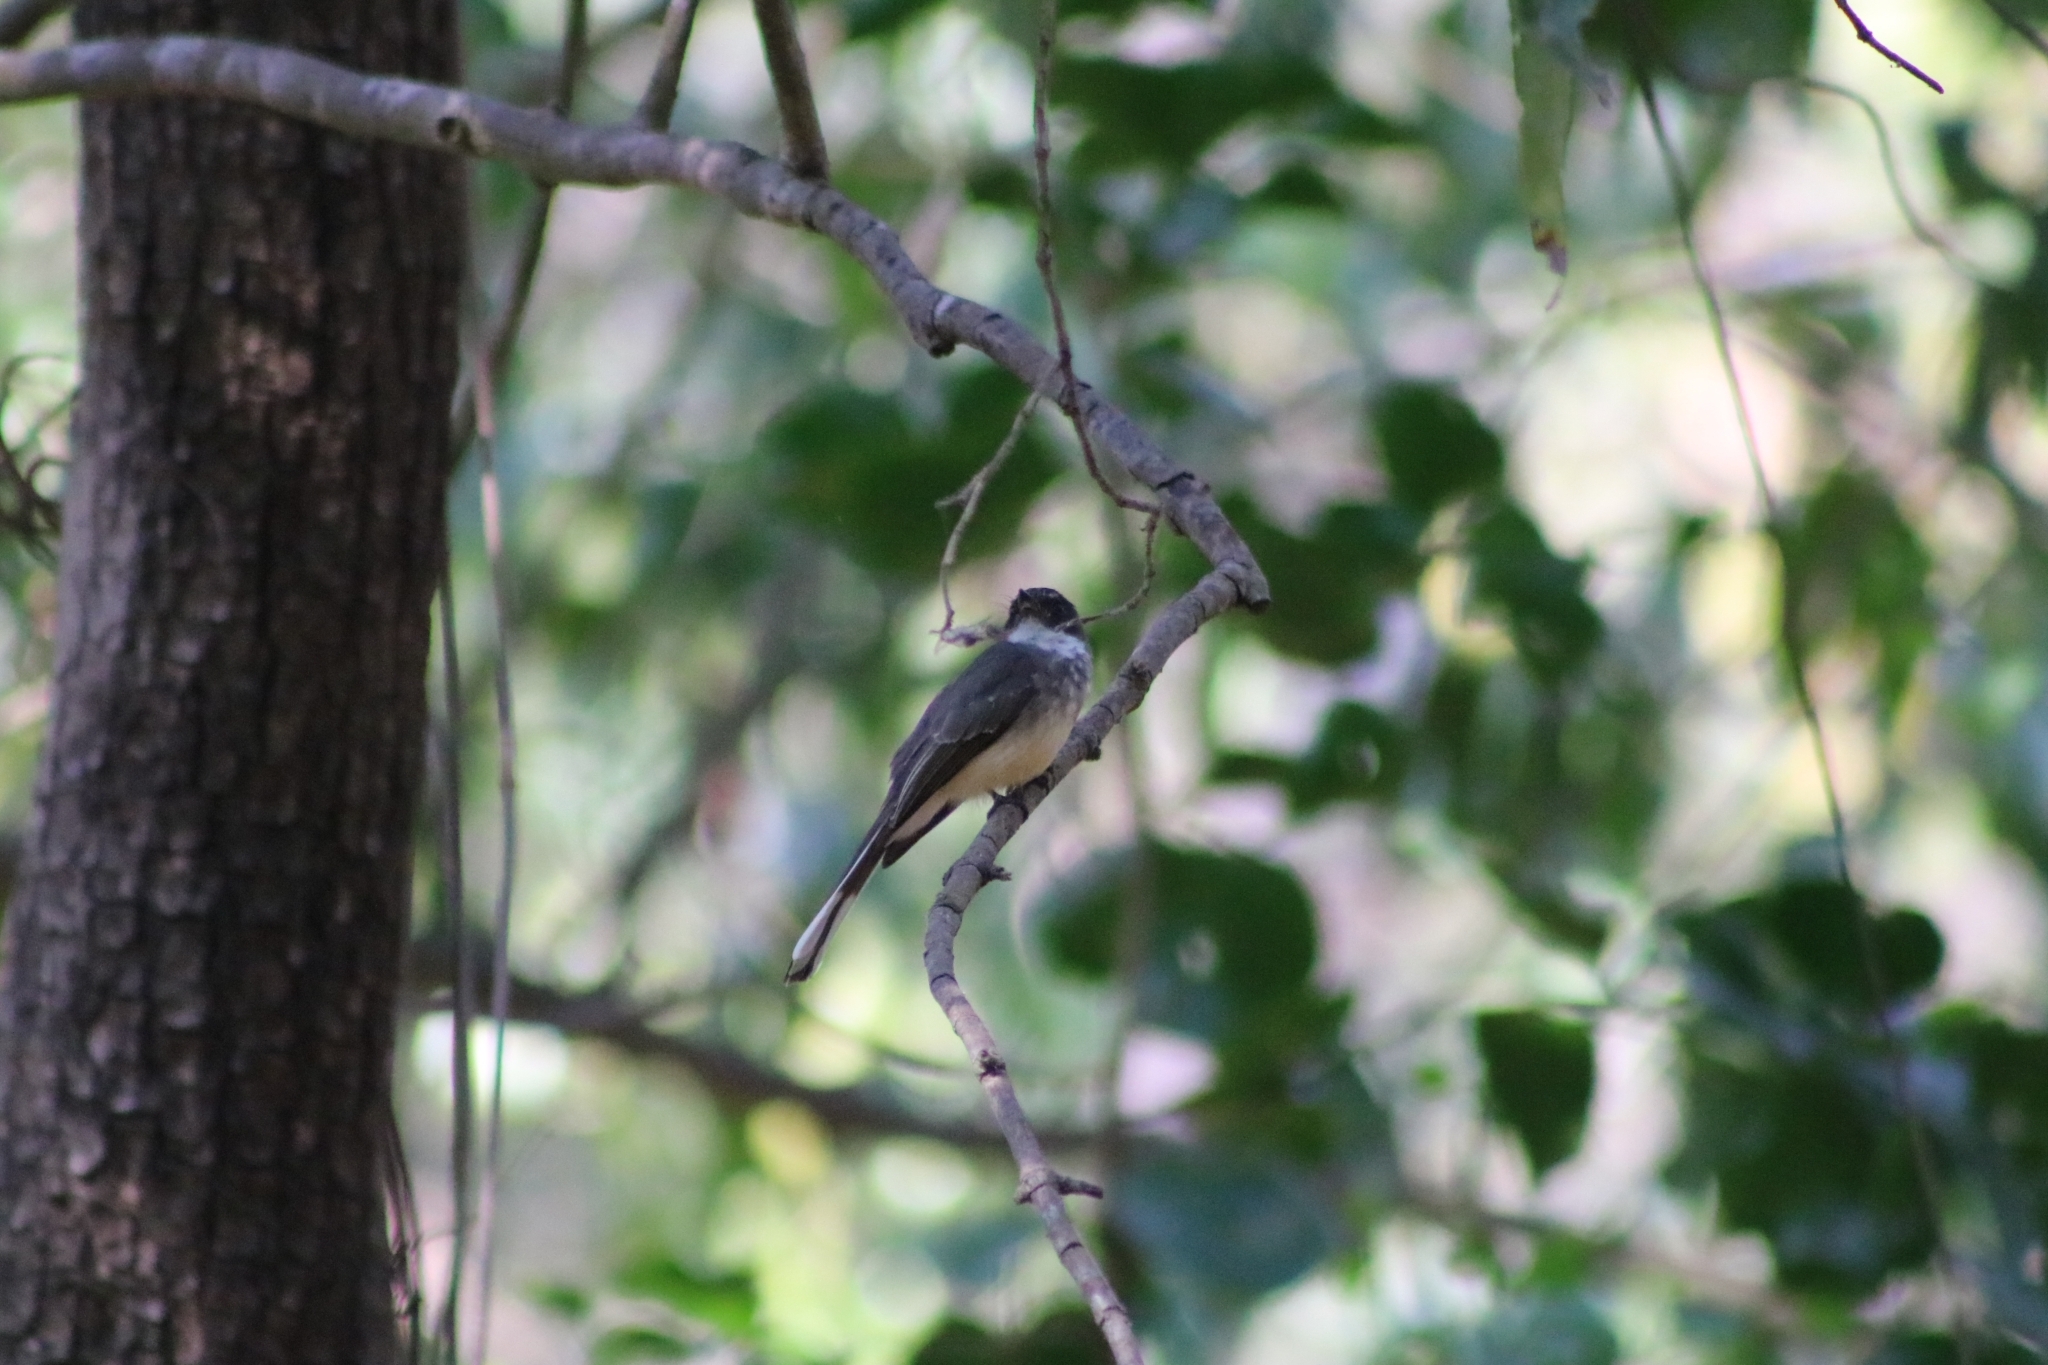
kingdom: Animalia
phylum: Chordata
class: Aves
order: Passeriformes
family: Rhipiduridae
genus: Rhipidura
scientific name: Rhipidura rufiventris
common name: Northern fantail
